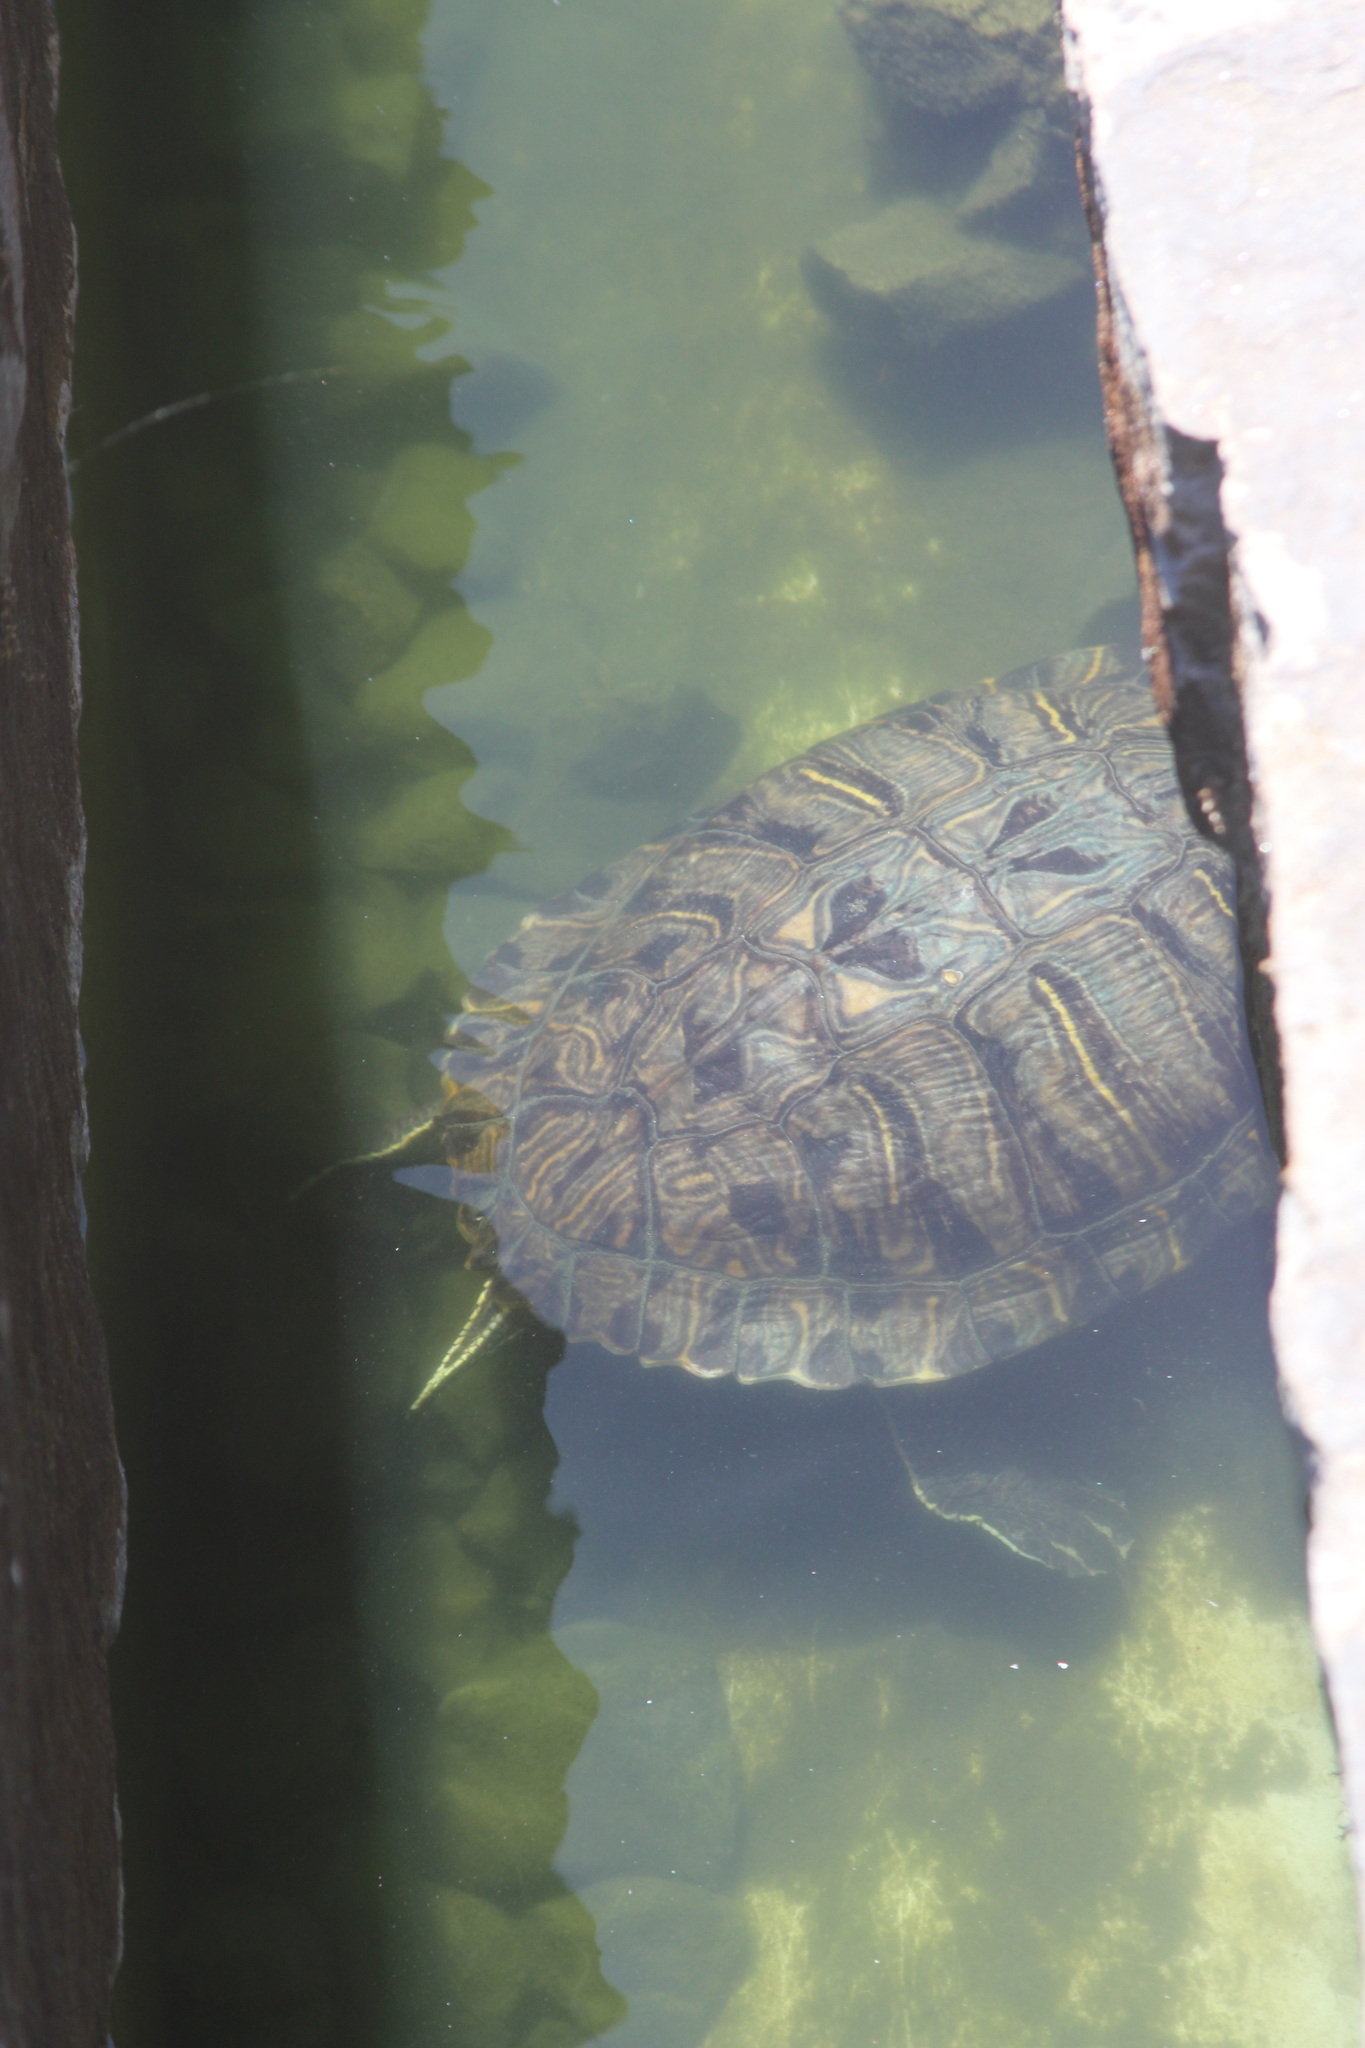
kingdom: Animalia
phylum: Chordata
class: Testudines
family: Emydidae
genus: Trachemys
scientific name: Trachemys scripta
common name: Slider
